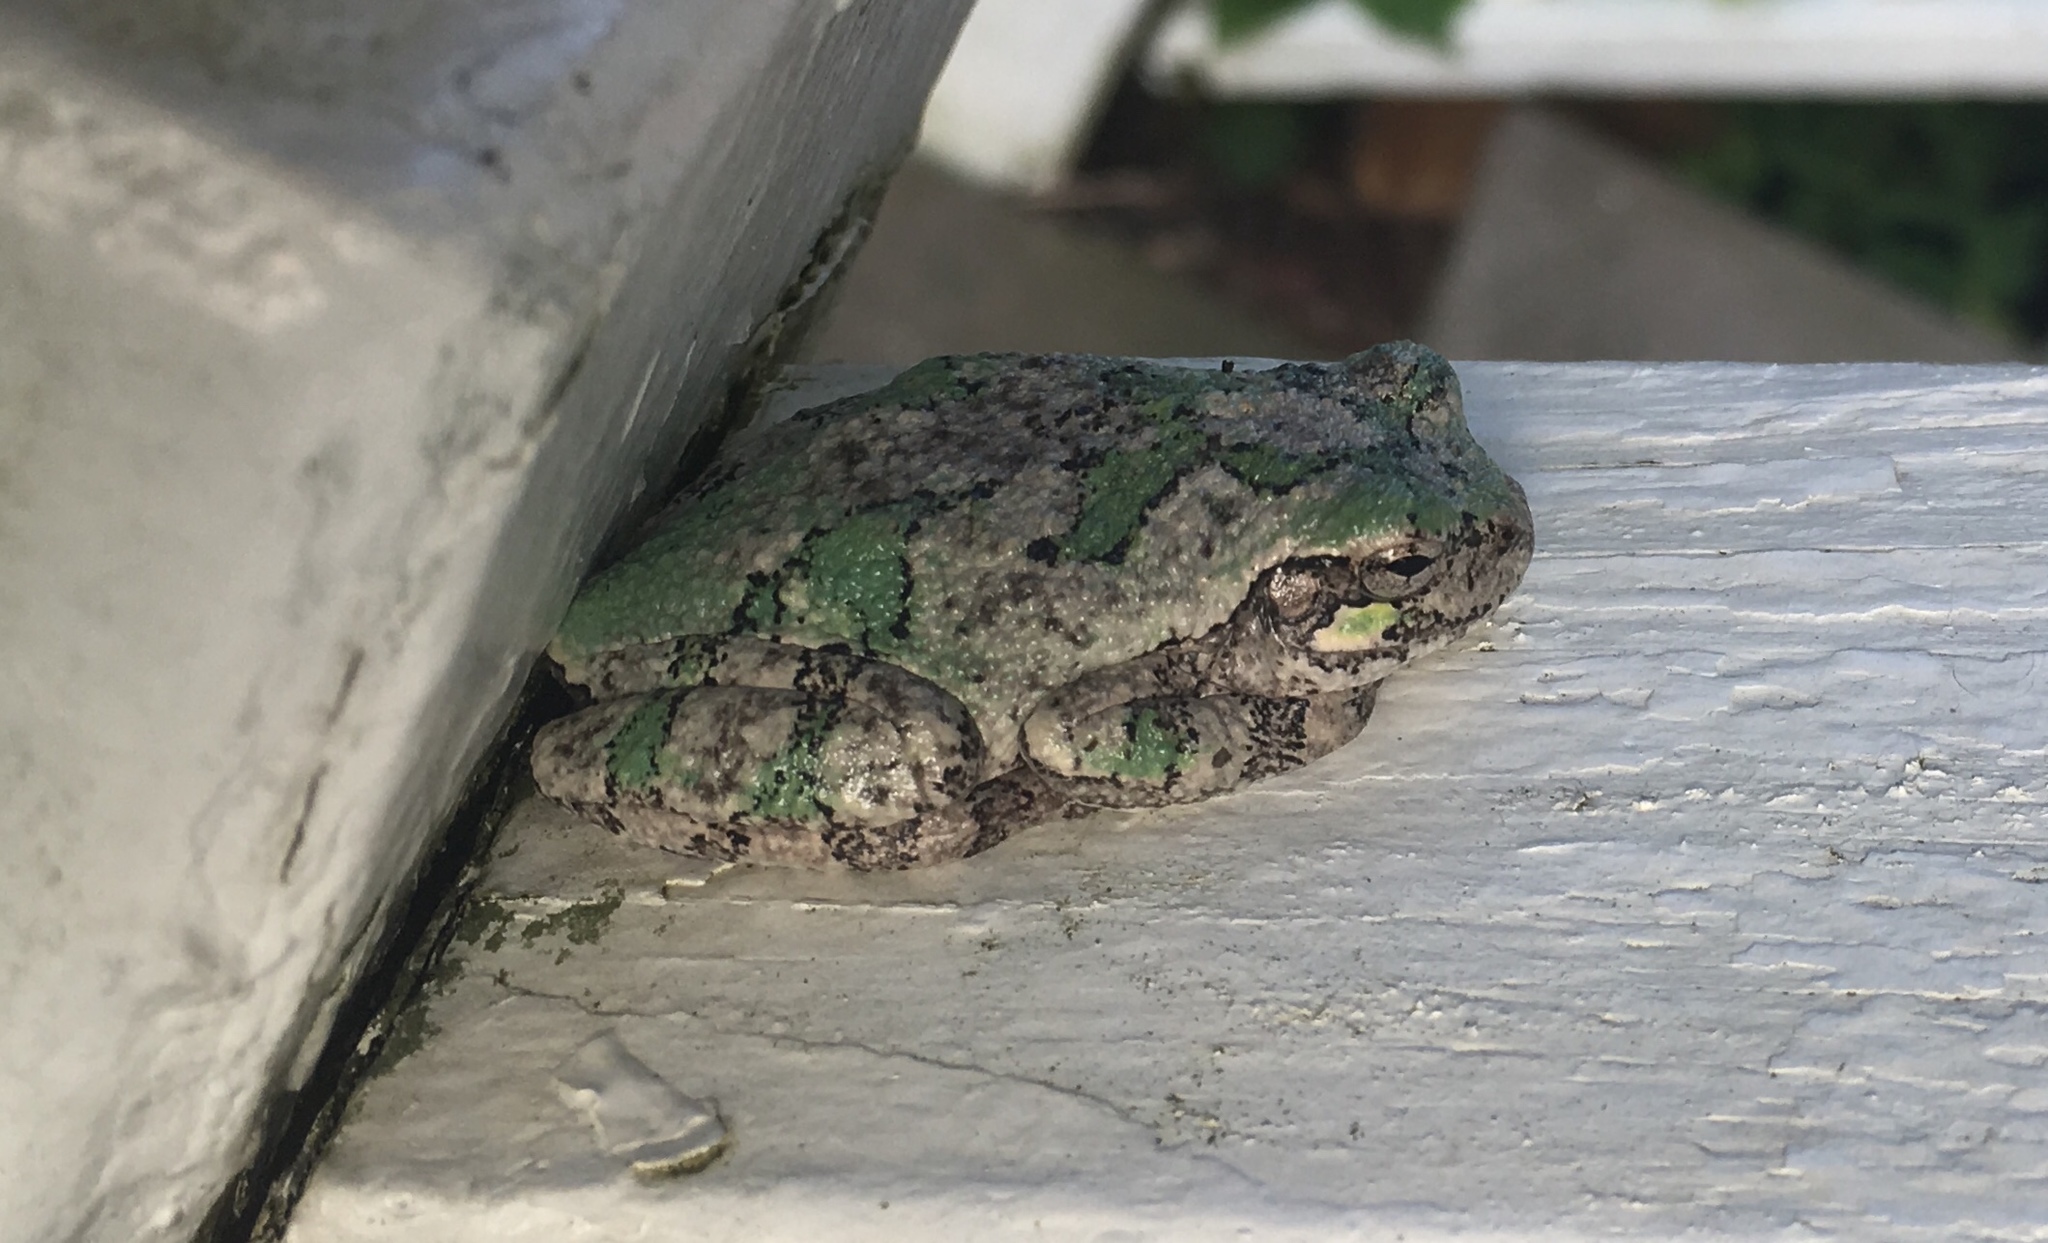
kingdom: Animalia
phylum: Chordata
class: Amphibia
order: Anura
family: Hylidae
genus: Hyla
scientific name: Hyla
